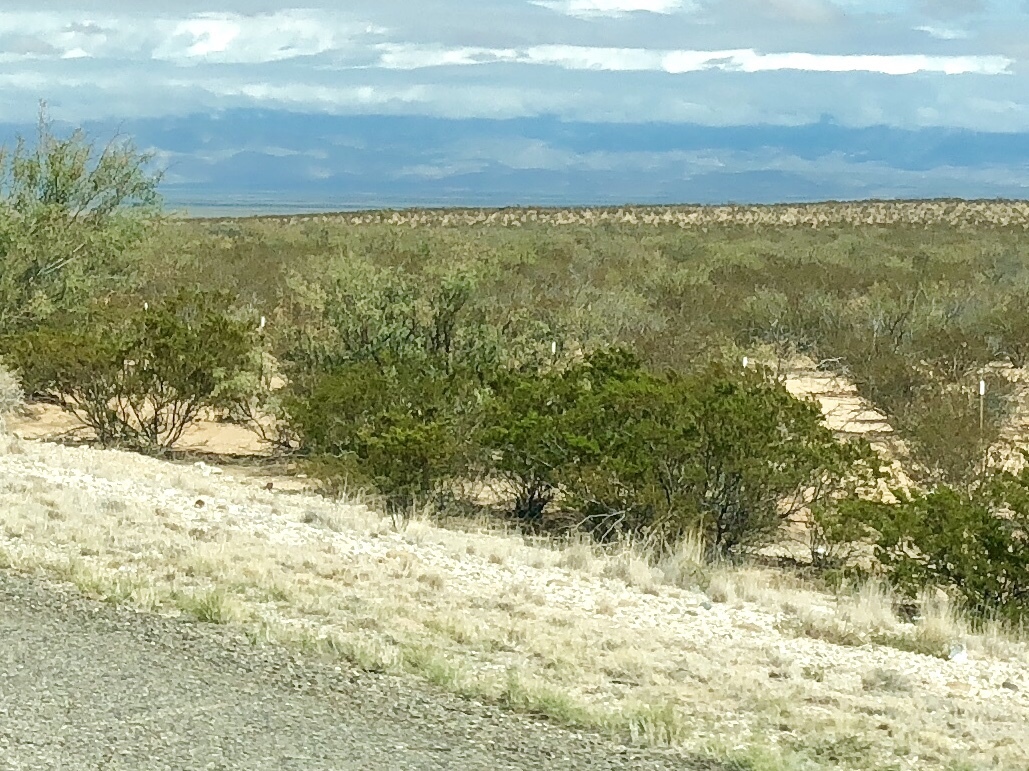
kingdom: Plantae
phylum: Tracheophyta
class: Magnoliopsida
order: Zygophyllales
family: Zygophyllaceae
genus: Larrea
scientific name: Larrea tridentata
